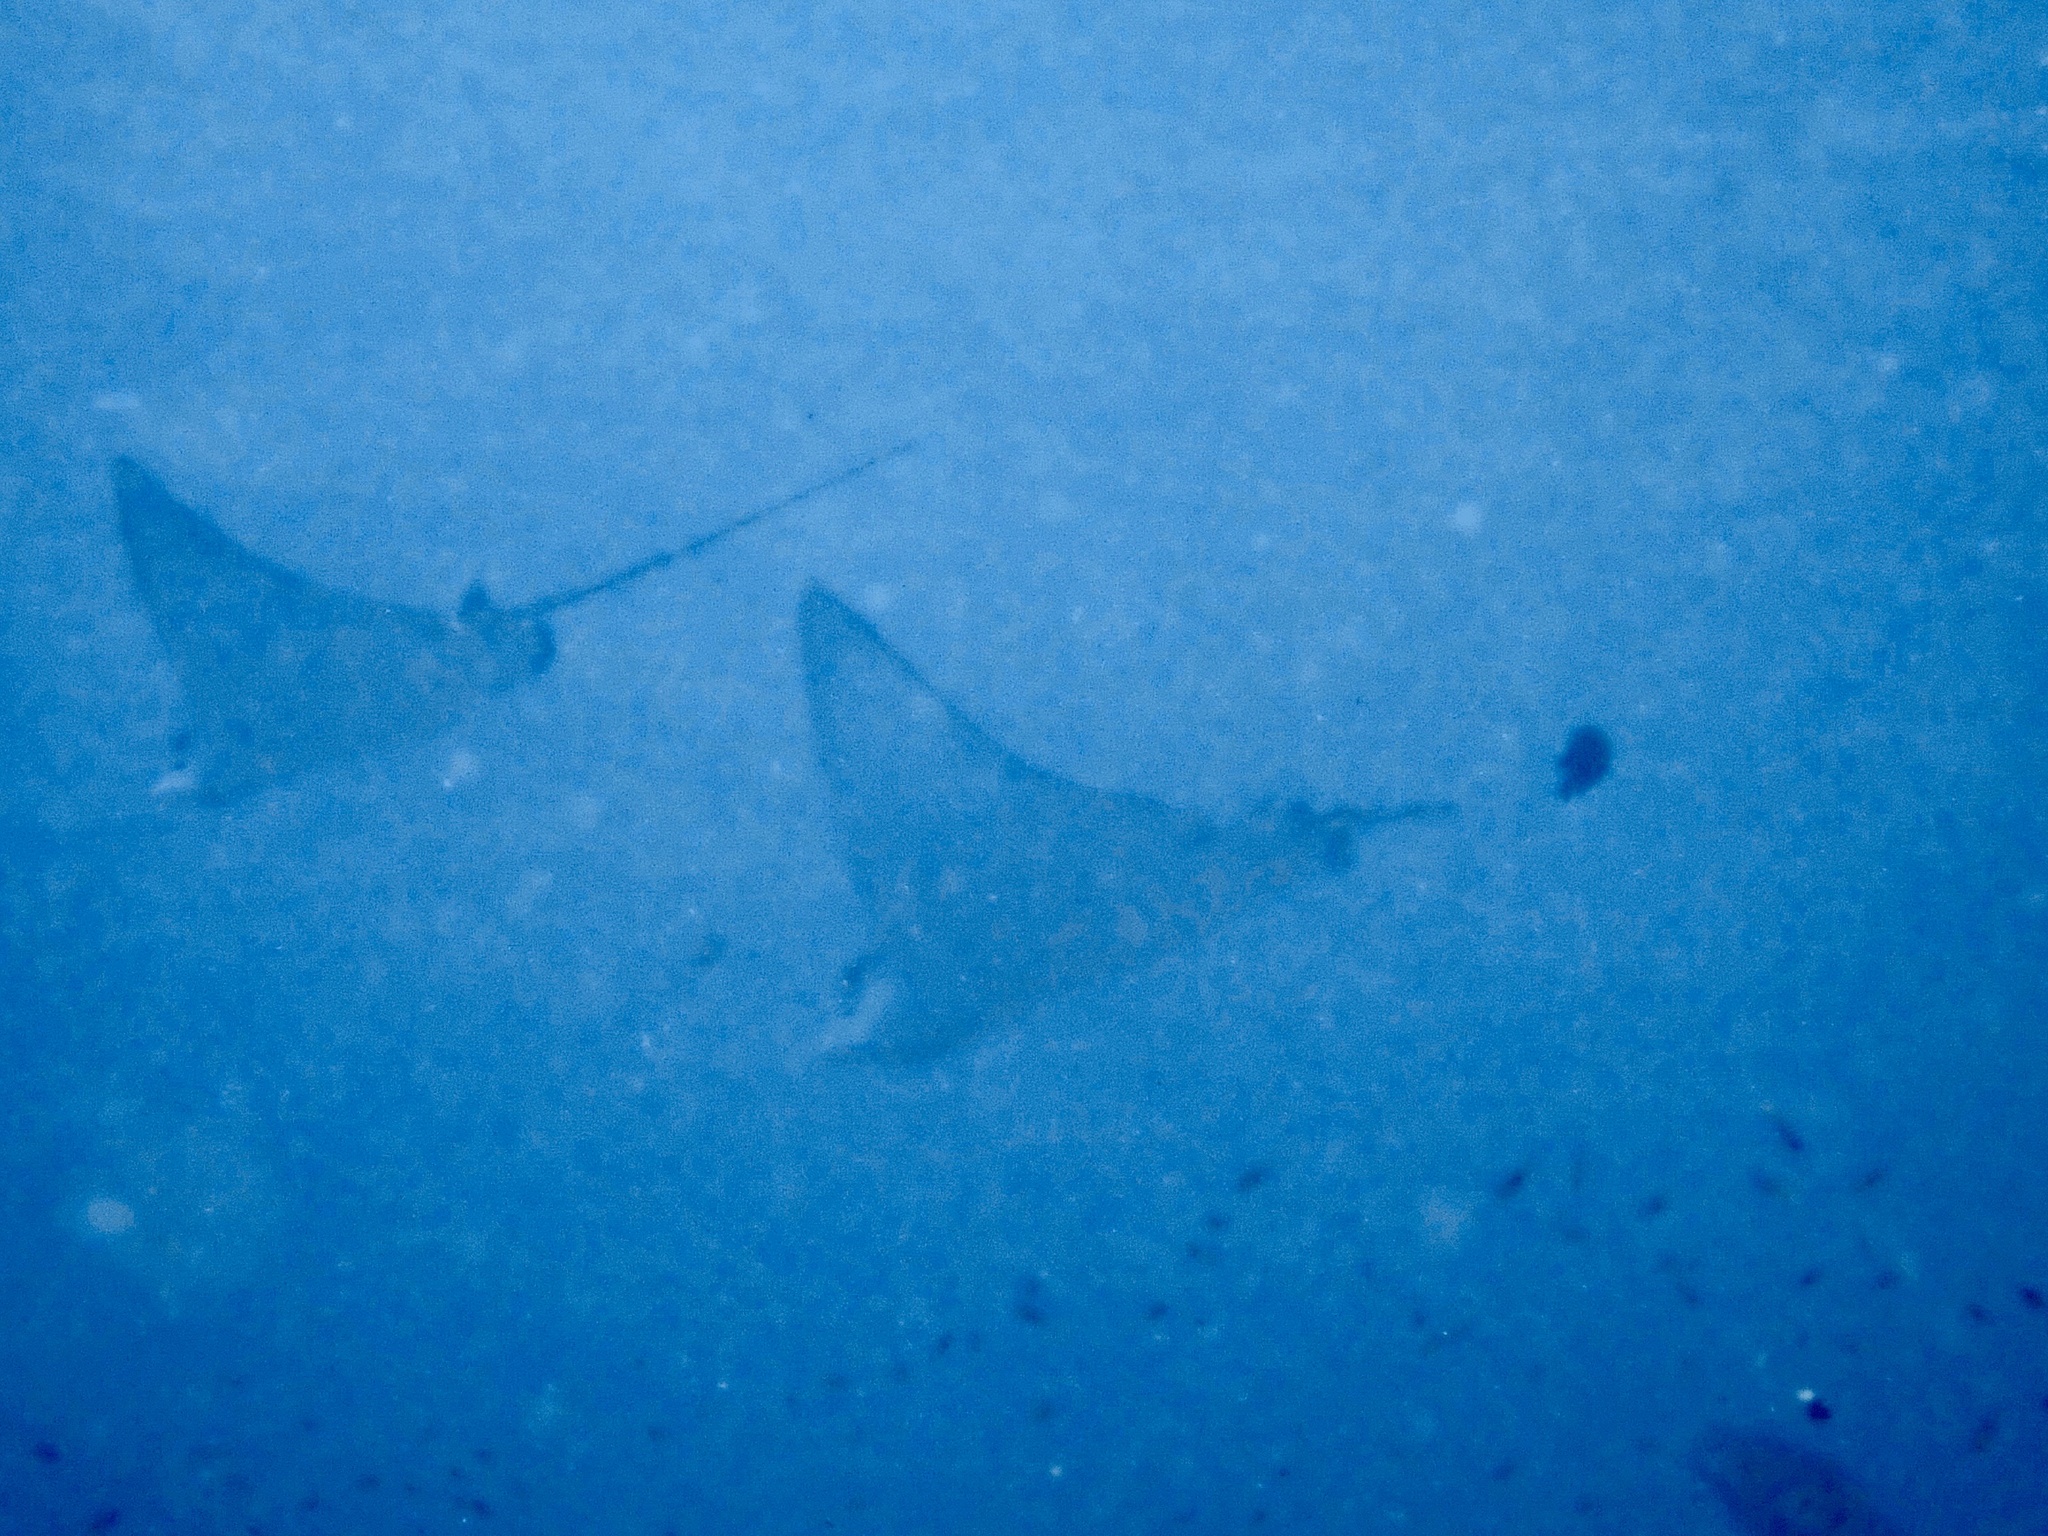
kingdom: Animalia
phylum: Chordata
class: Elasmobranchii
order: Myliobatiformes
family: Myliobatidae
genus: Aetobatus
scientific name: Aetobatus ocellatus
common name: Ocellated eagle ray
